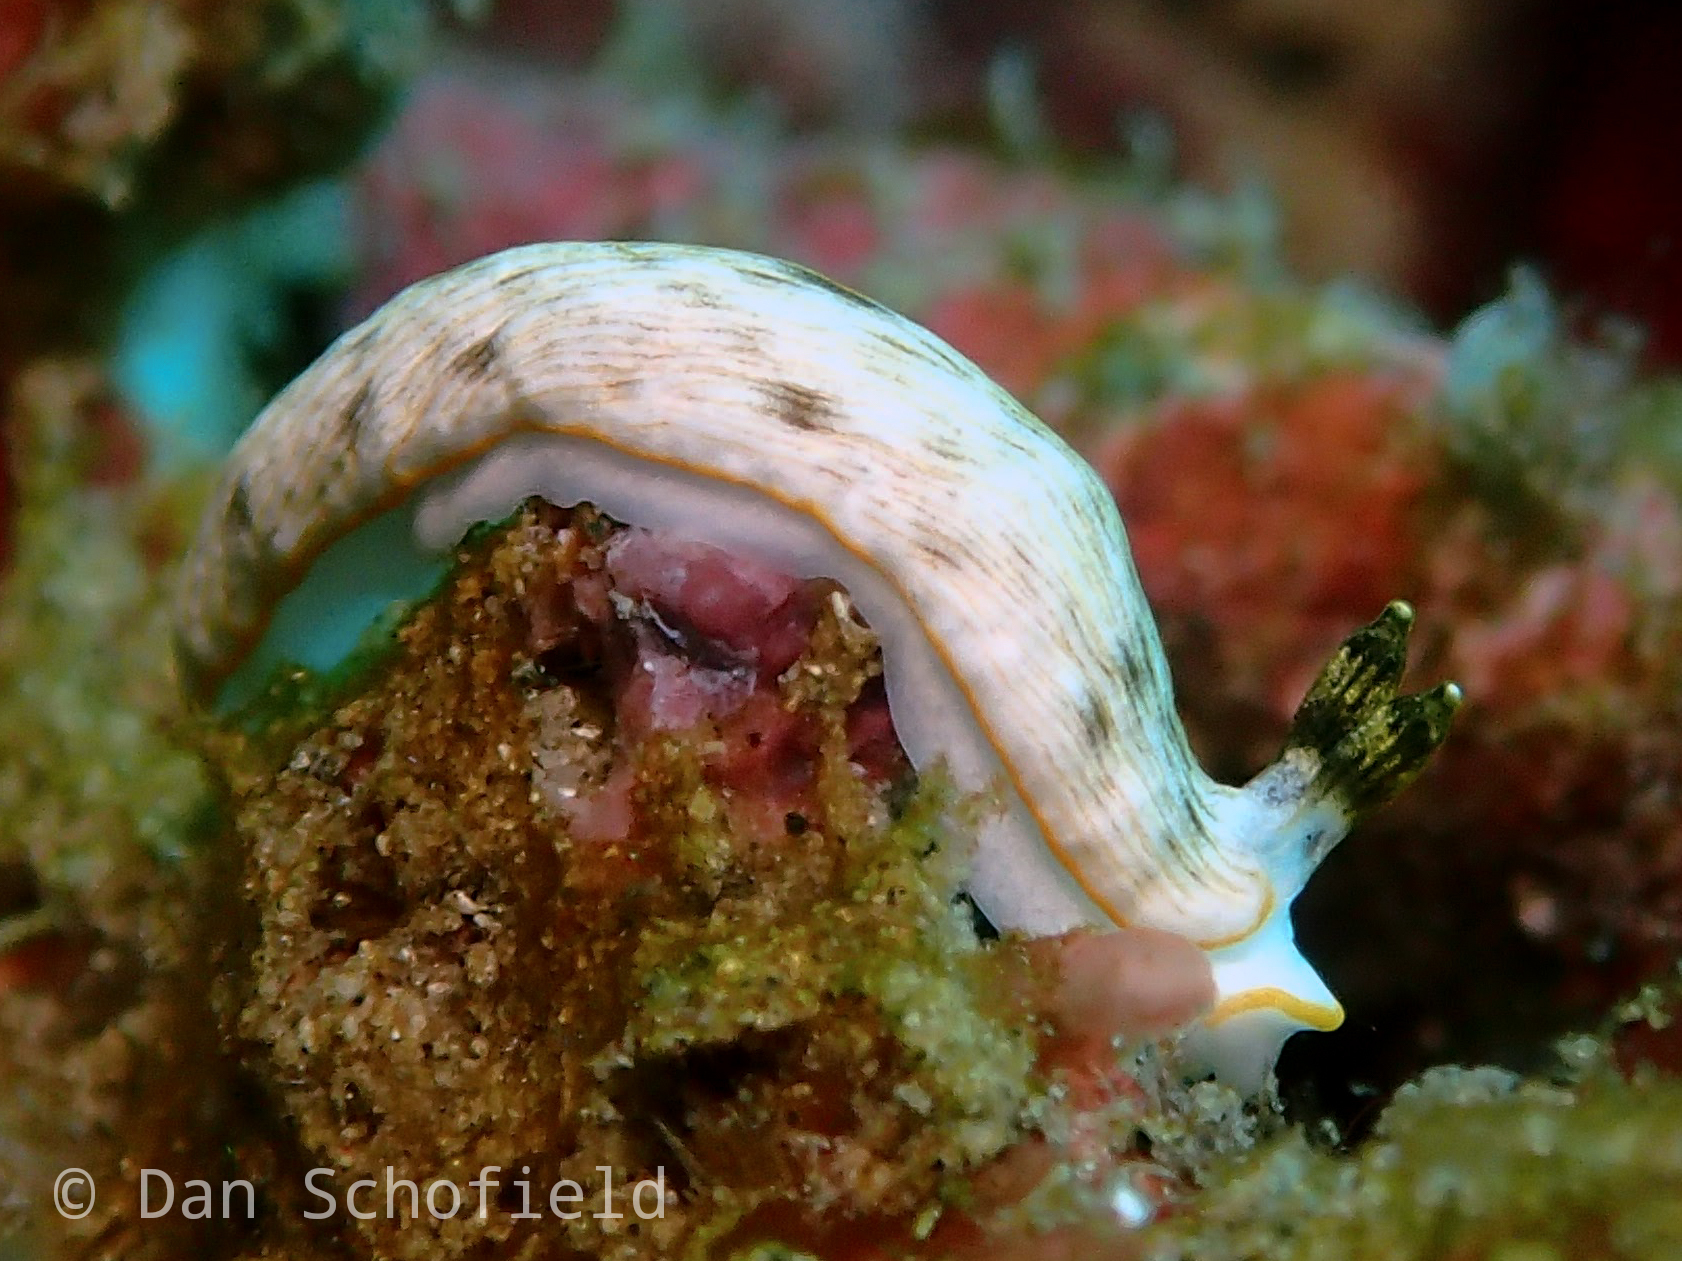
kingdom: Animalia
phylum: Mollusca
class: Gastropoda
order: Nudibranchia
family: Arminidae
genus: Dermatobranchus
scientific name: Dermatobranchus albus
